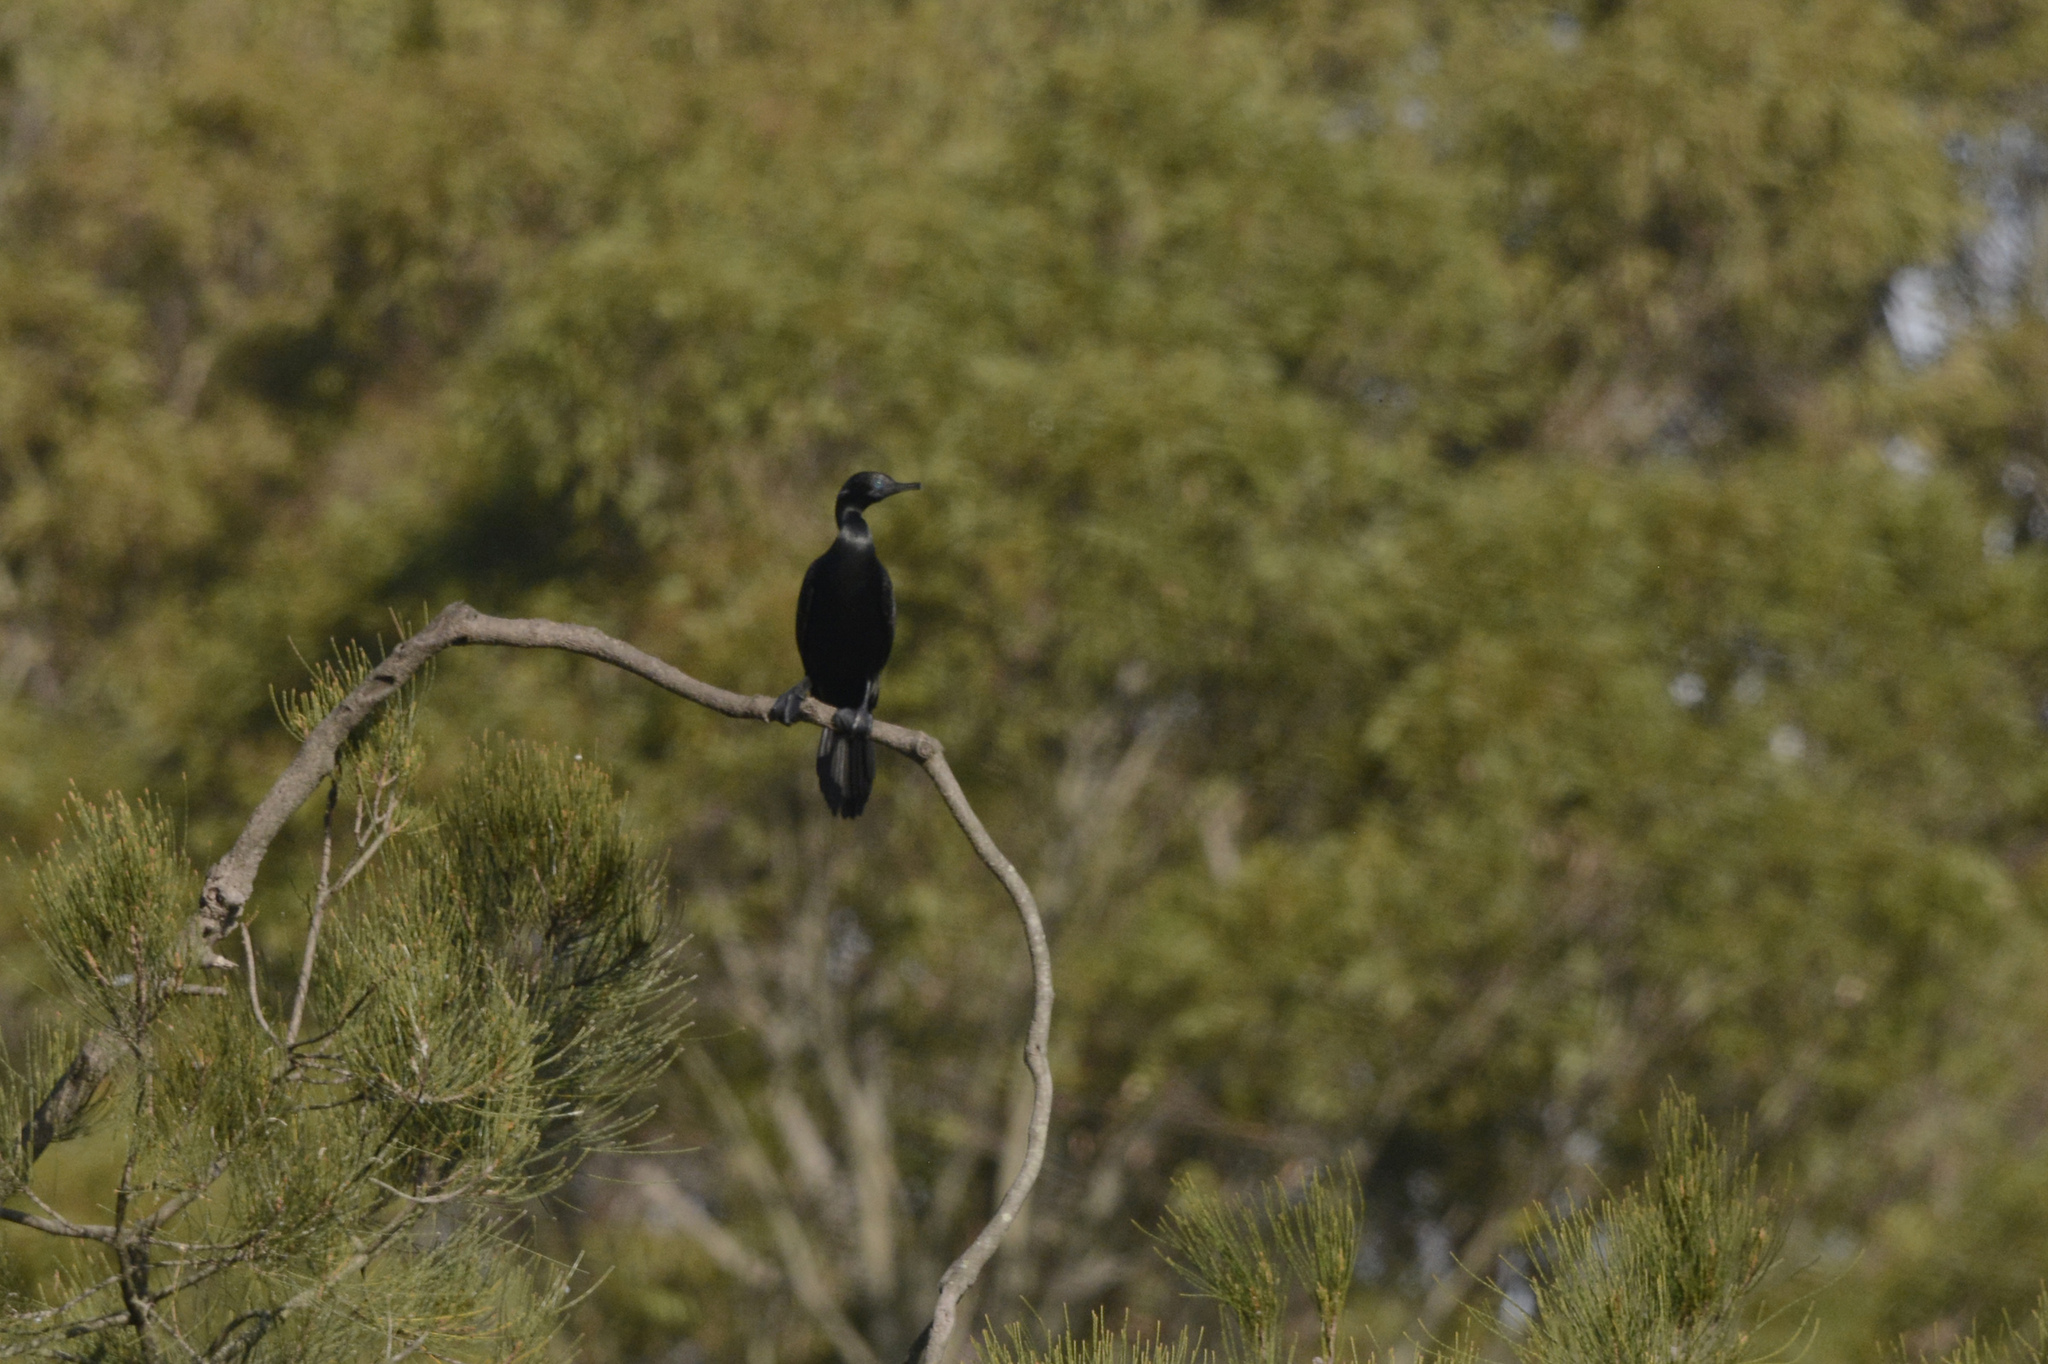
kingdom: Animalia
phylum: Chordata
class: Aves
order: Suliformes
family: Phalacrocoracidae
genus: Phalacrocorax
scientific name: Phalacrocorax sulcirostris
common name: Little black cormorant
